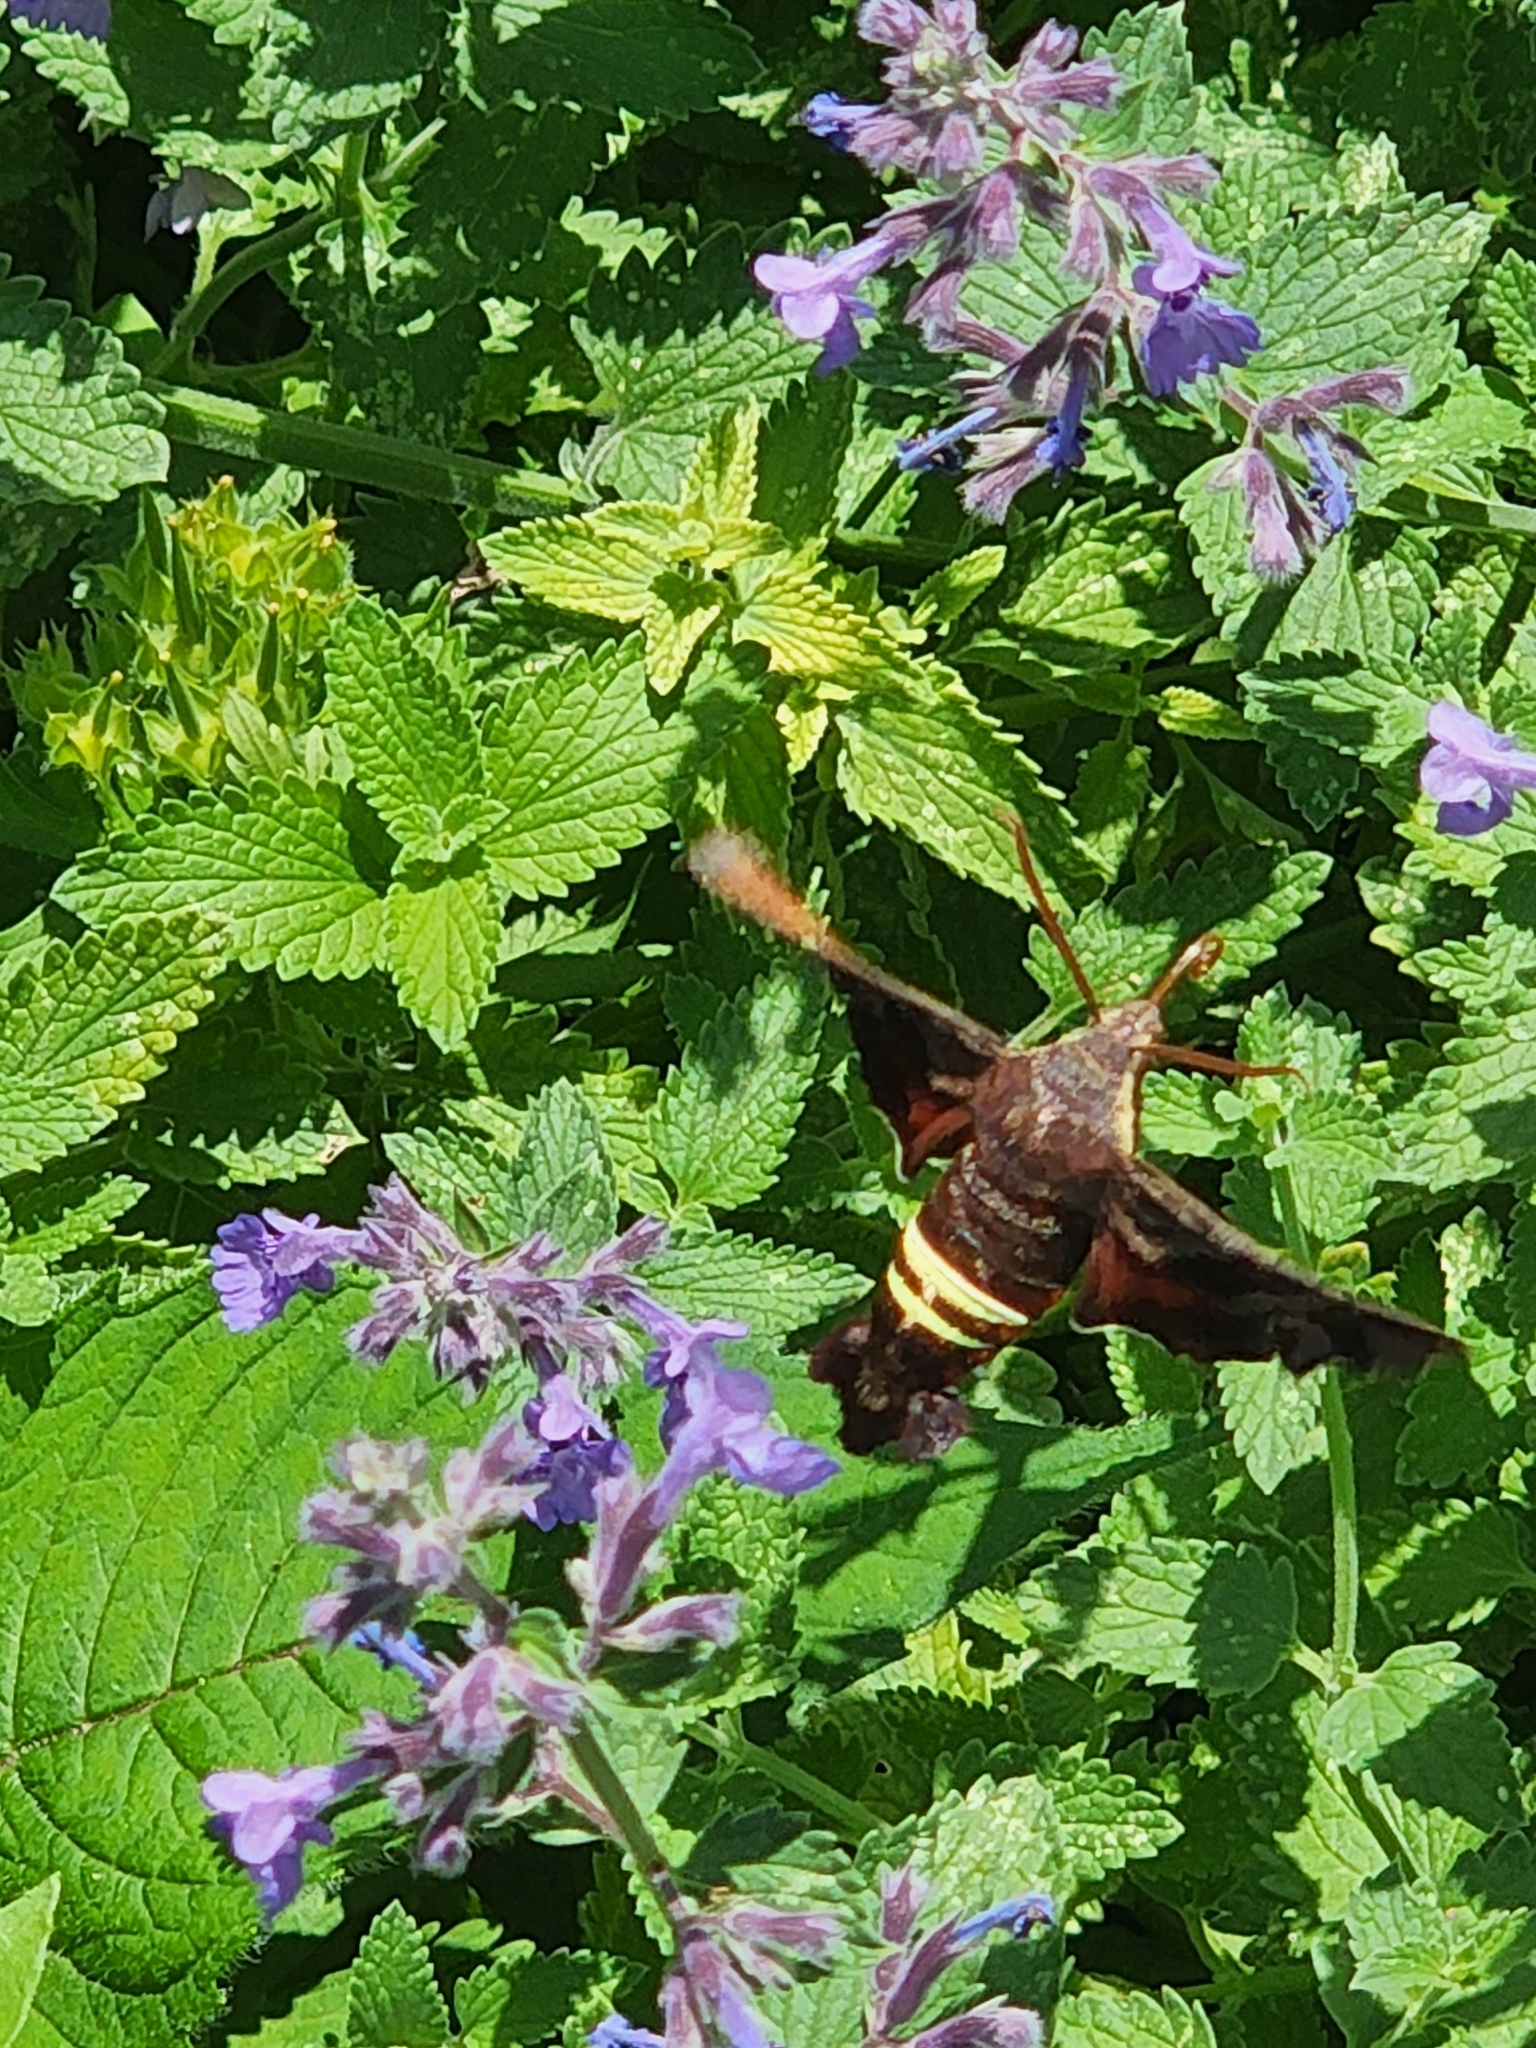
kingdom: Animalia
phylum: Arthropoda
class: Insecta
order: Lepidoptera
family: Sphingidae
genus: Amphion
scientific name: Amphion floridensis
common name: Nessus sphinx
